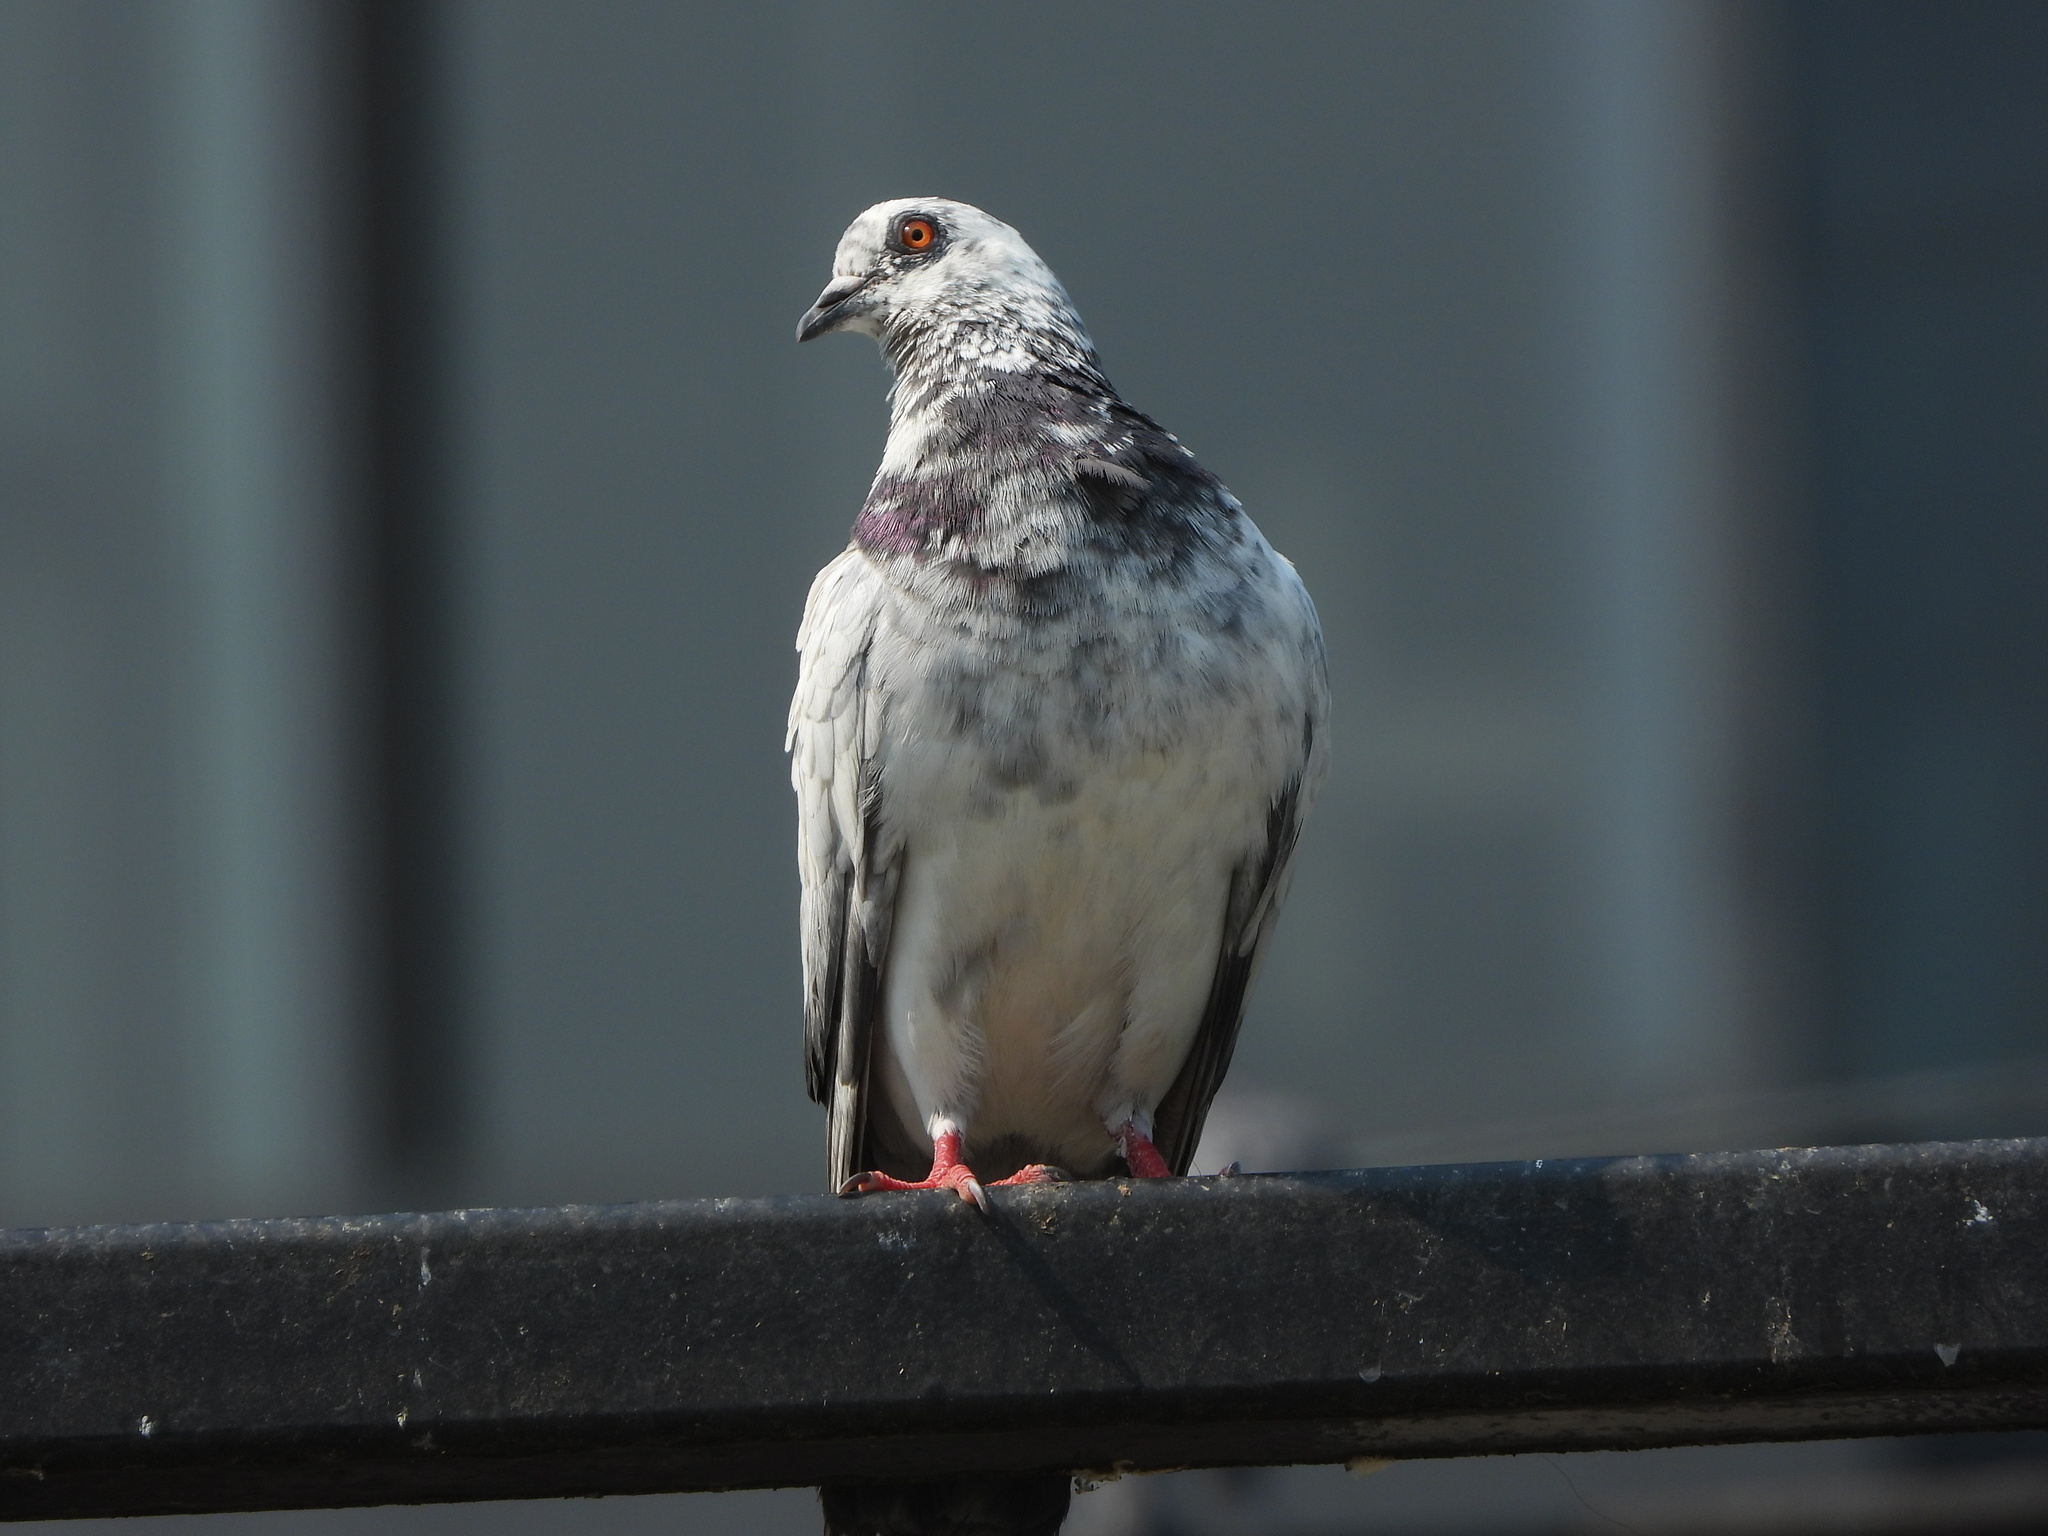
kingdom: Animalia
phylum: Chordata
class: Aves
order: Columbiformes
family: Columbidae
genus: Columba
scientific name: Columba livia
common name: Rock pigeon
